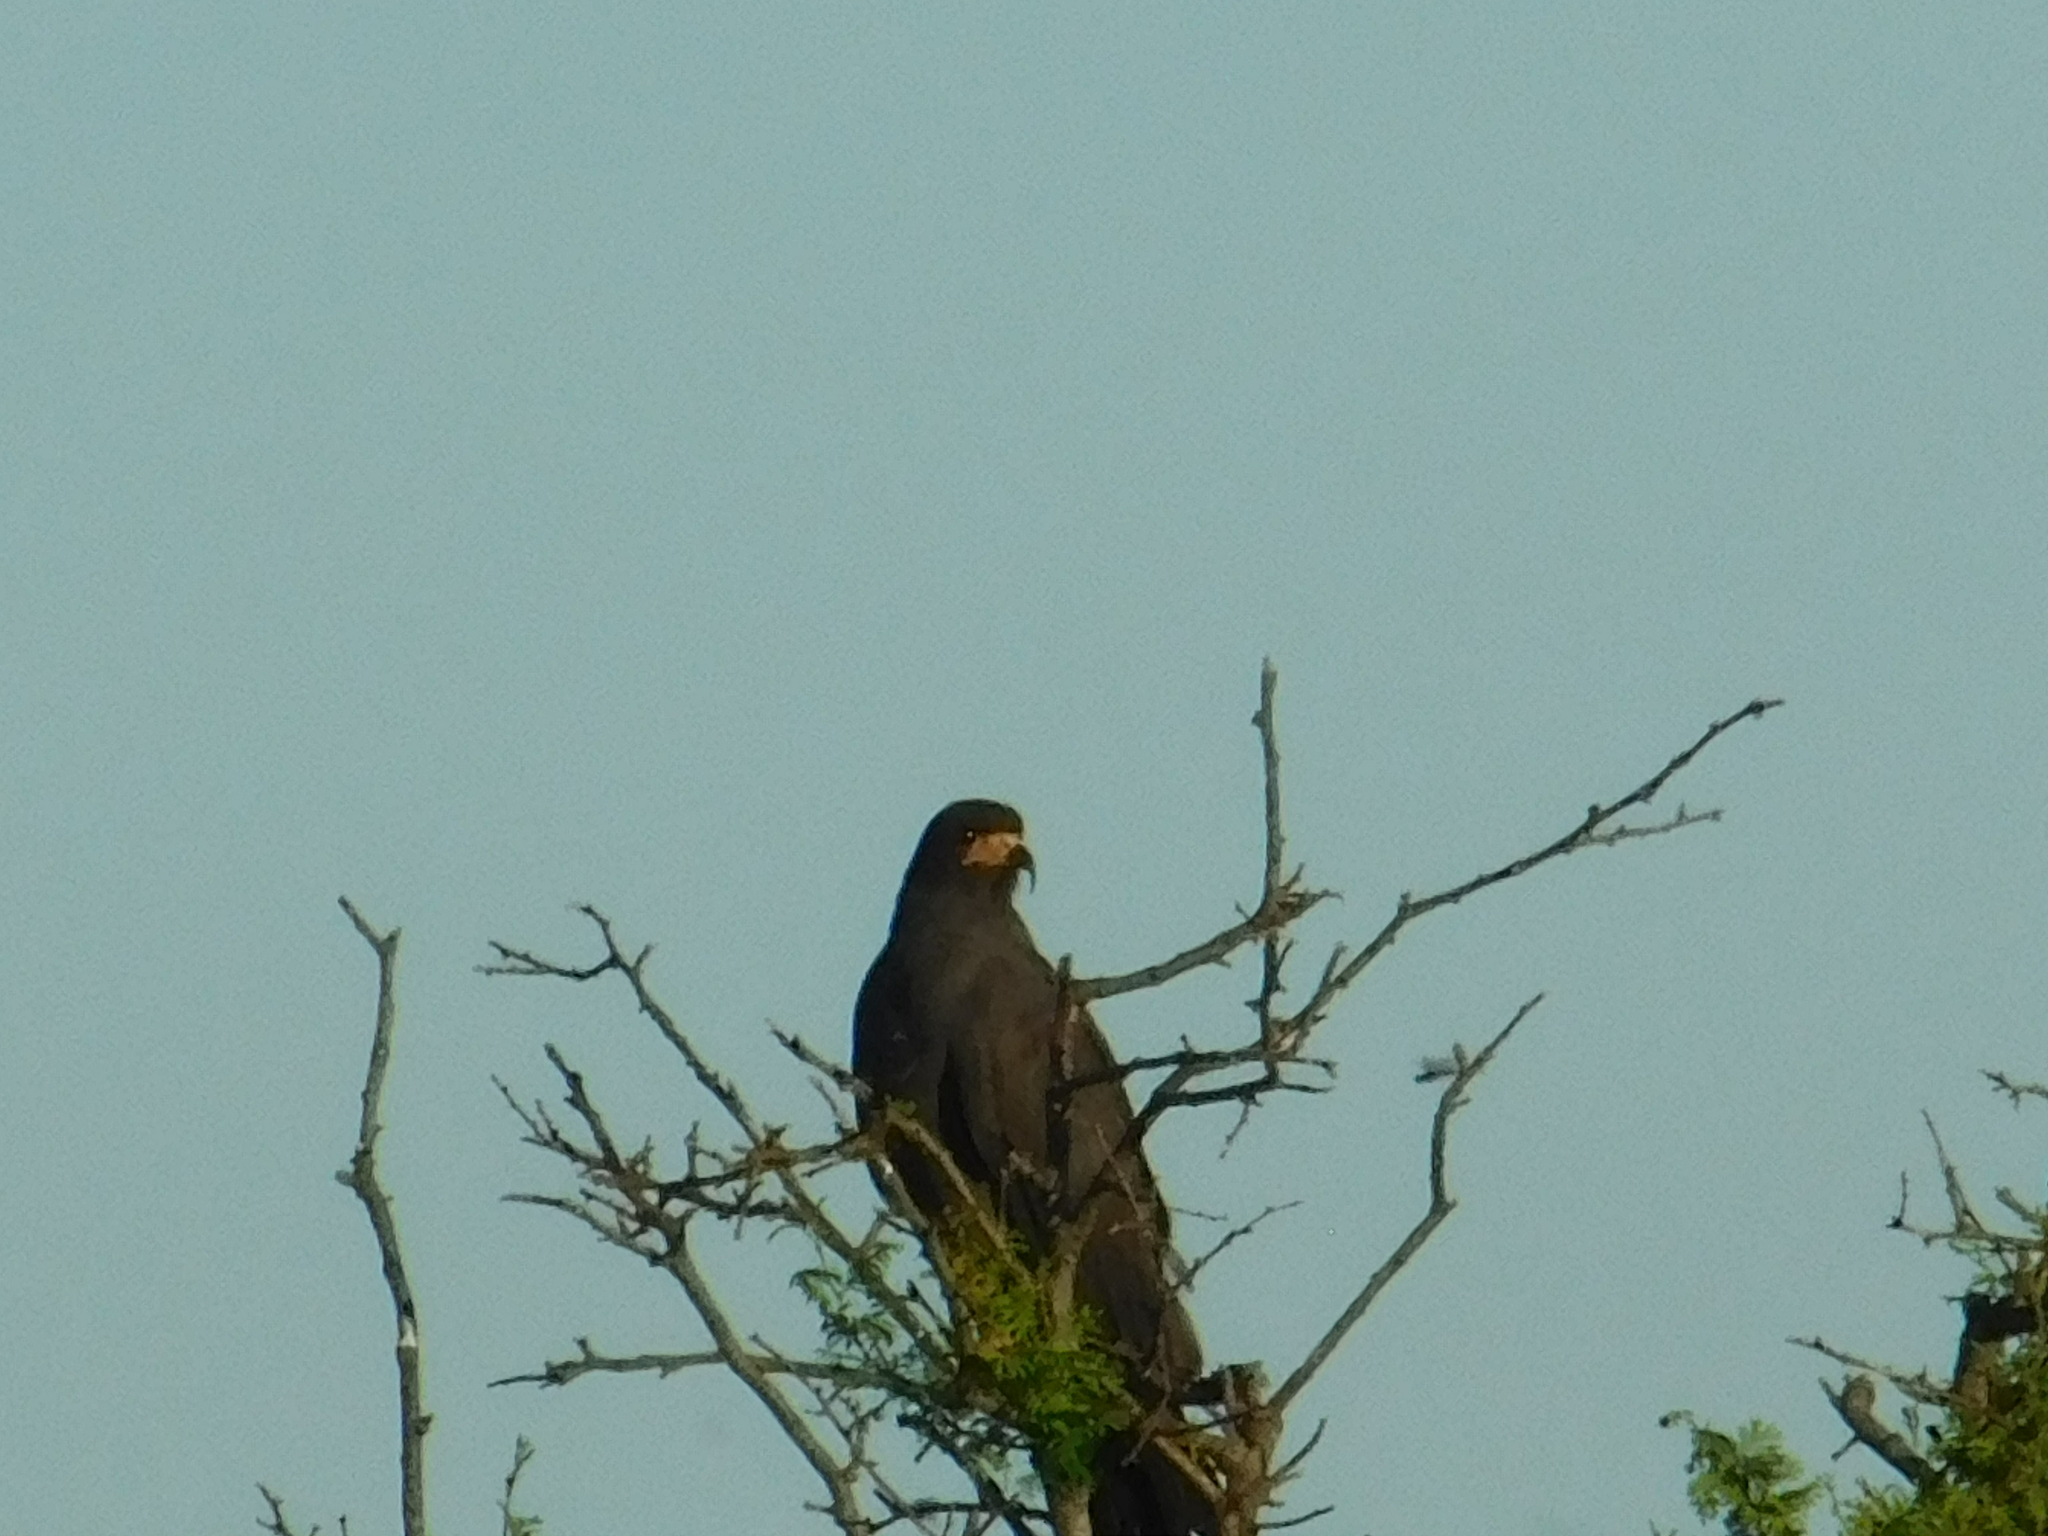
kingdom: Animalia
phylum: Chordata
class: Aves
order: Accipitriformes
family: Accipitridae
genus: Rostrhamus
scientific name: Rostrhamus sociabilis
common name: Snail kite
